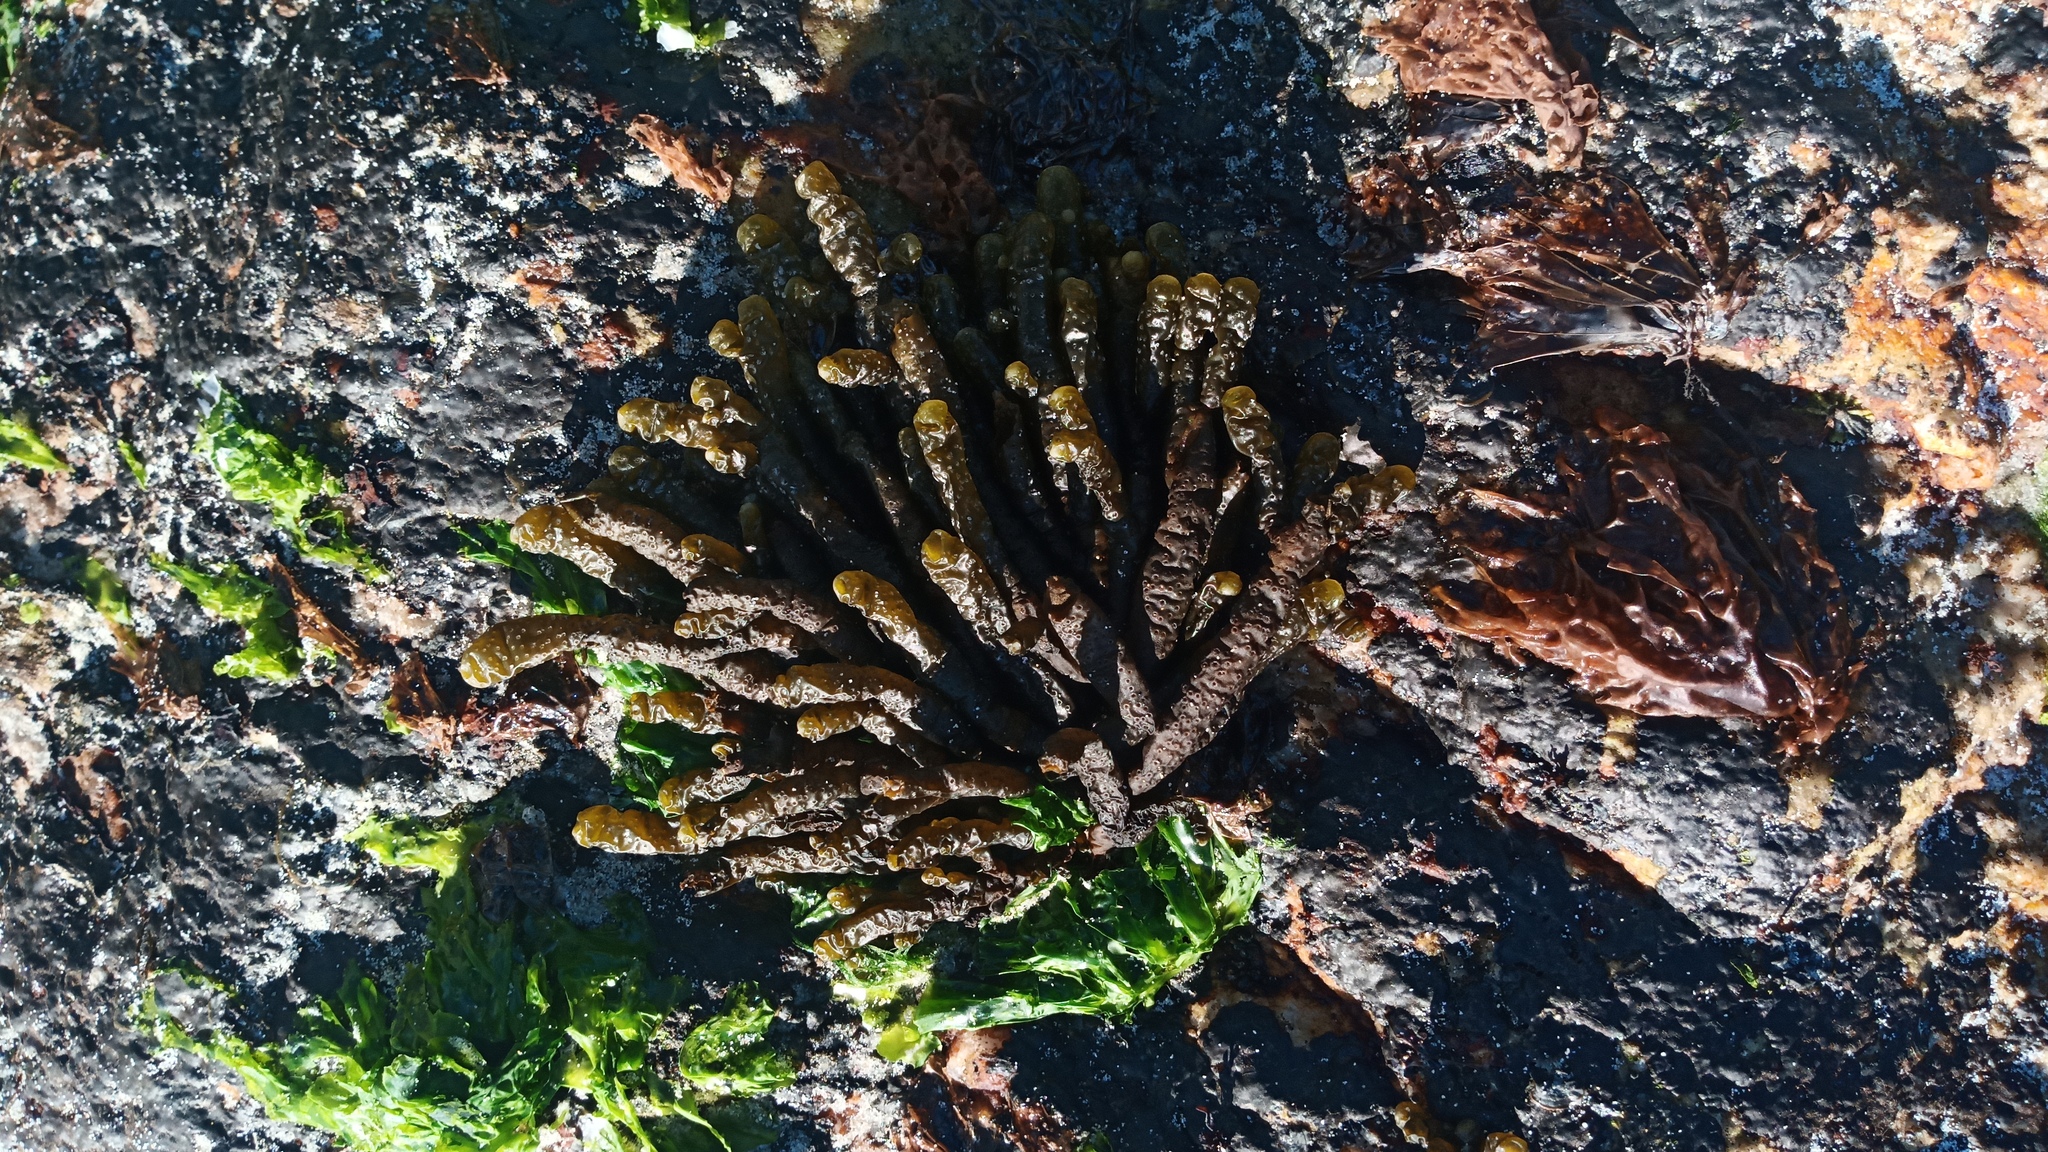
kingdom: Chromista
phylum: Ochrophyta
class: Phaeophyceae
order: Scytothamnales
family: Splachnidiaceae
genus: Splachnidium
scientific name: Splachnidium rugosum
